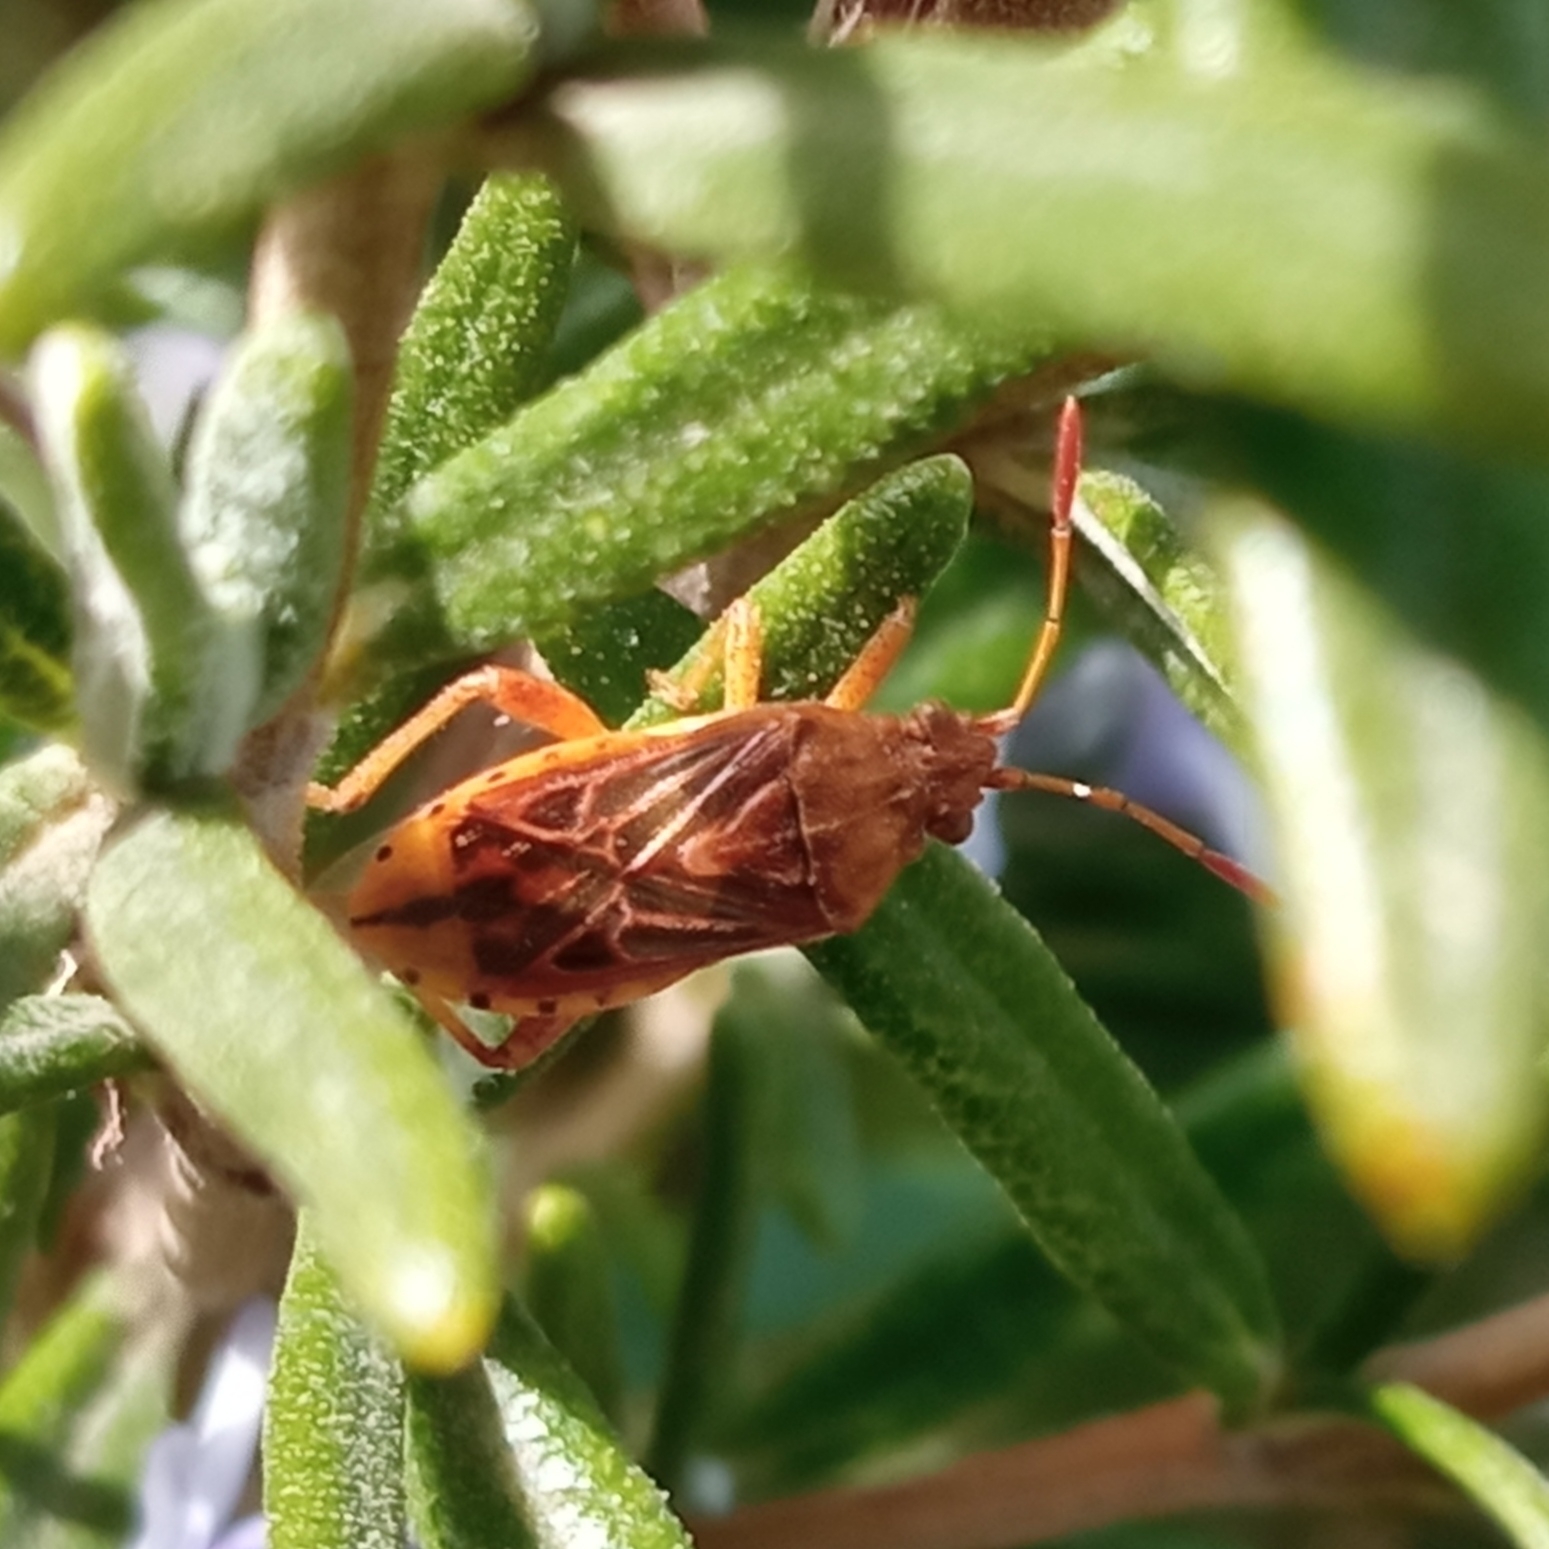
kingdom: Animalia
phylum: Arthropoda
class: Insecta
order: Hemiptera
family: Rhopalidae
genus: Stictopleurus
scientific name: Stictopleurus abutilon
